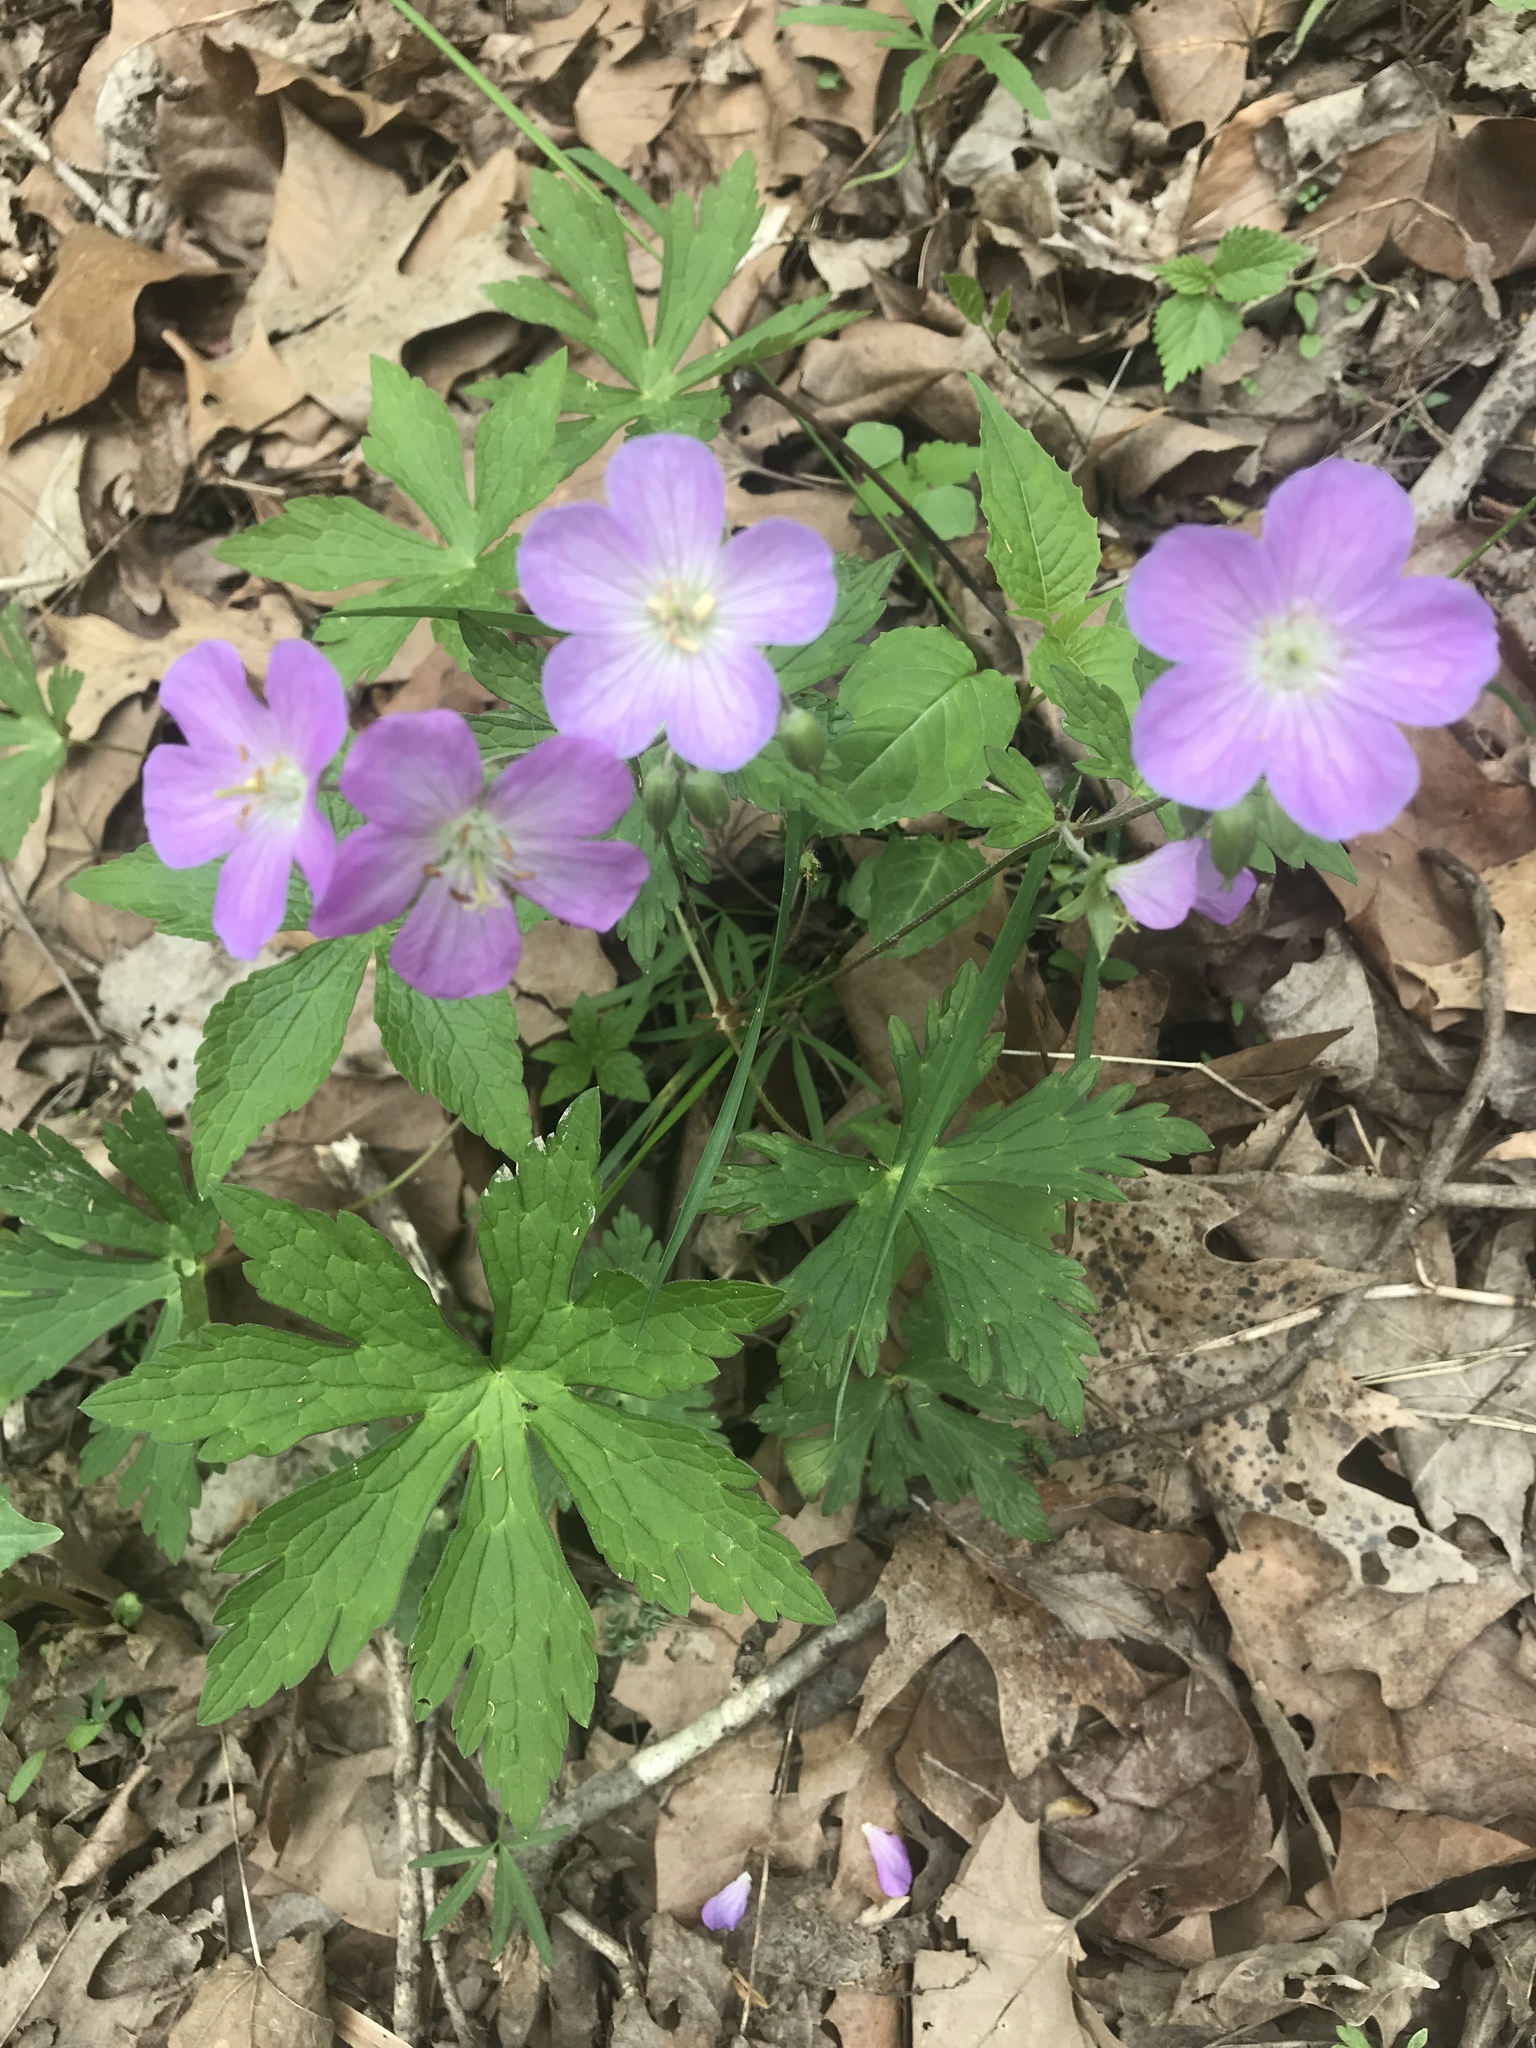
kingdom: Plantae
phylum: Tracheophyta
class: Magnoliopsida
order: Geraniales
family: Geraniaceae
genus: Geranium
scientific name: Geranium maculatum
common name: Spotted geranium
